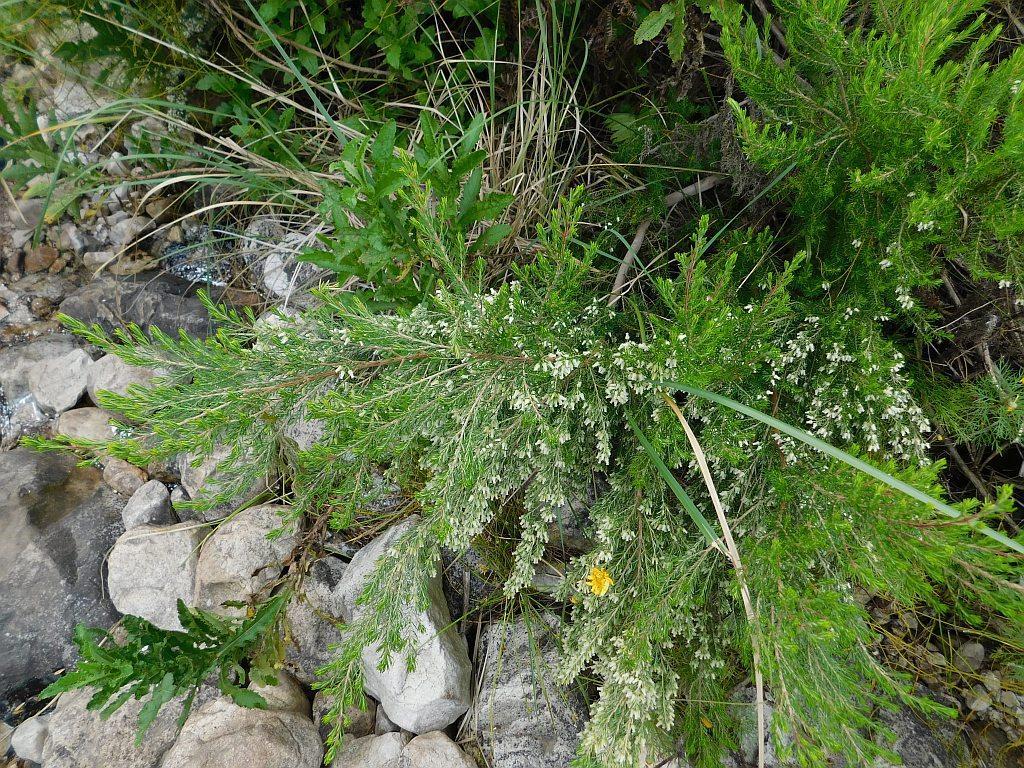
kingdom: Plantae
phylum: Tracheophyta
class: Magnoliopsida
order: Ericales
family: Ericaceae
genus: Erica
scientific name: Erica caffra
